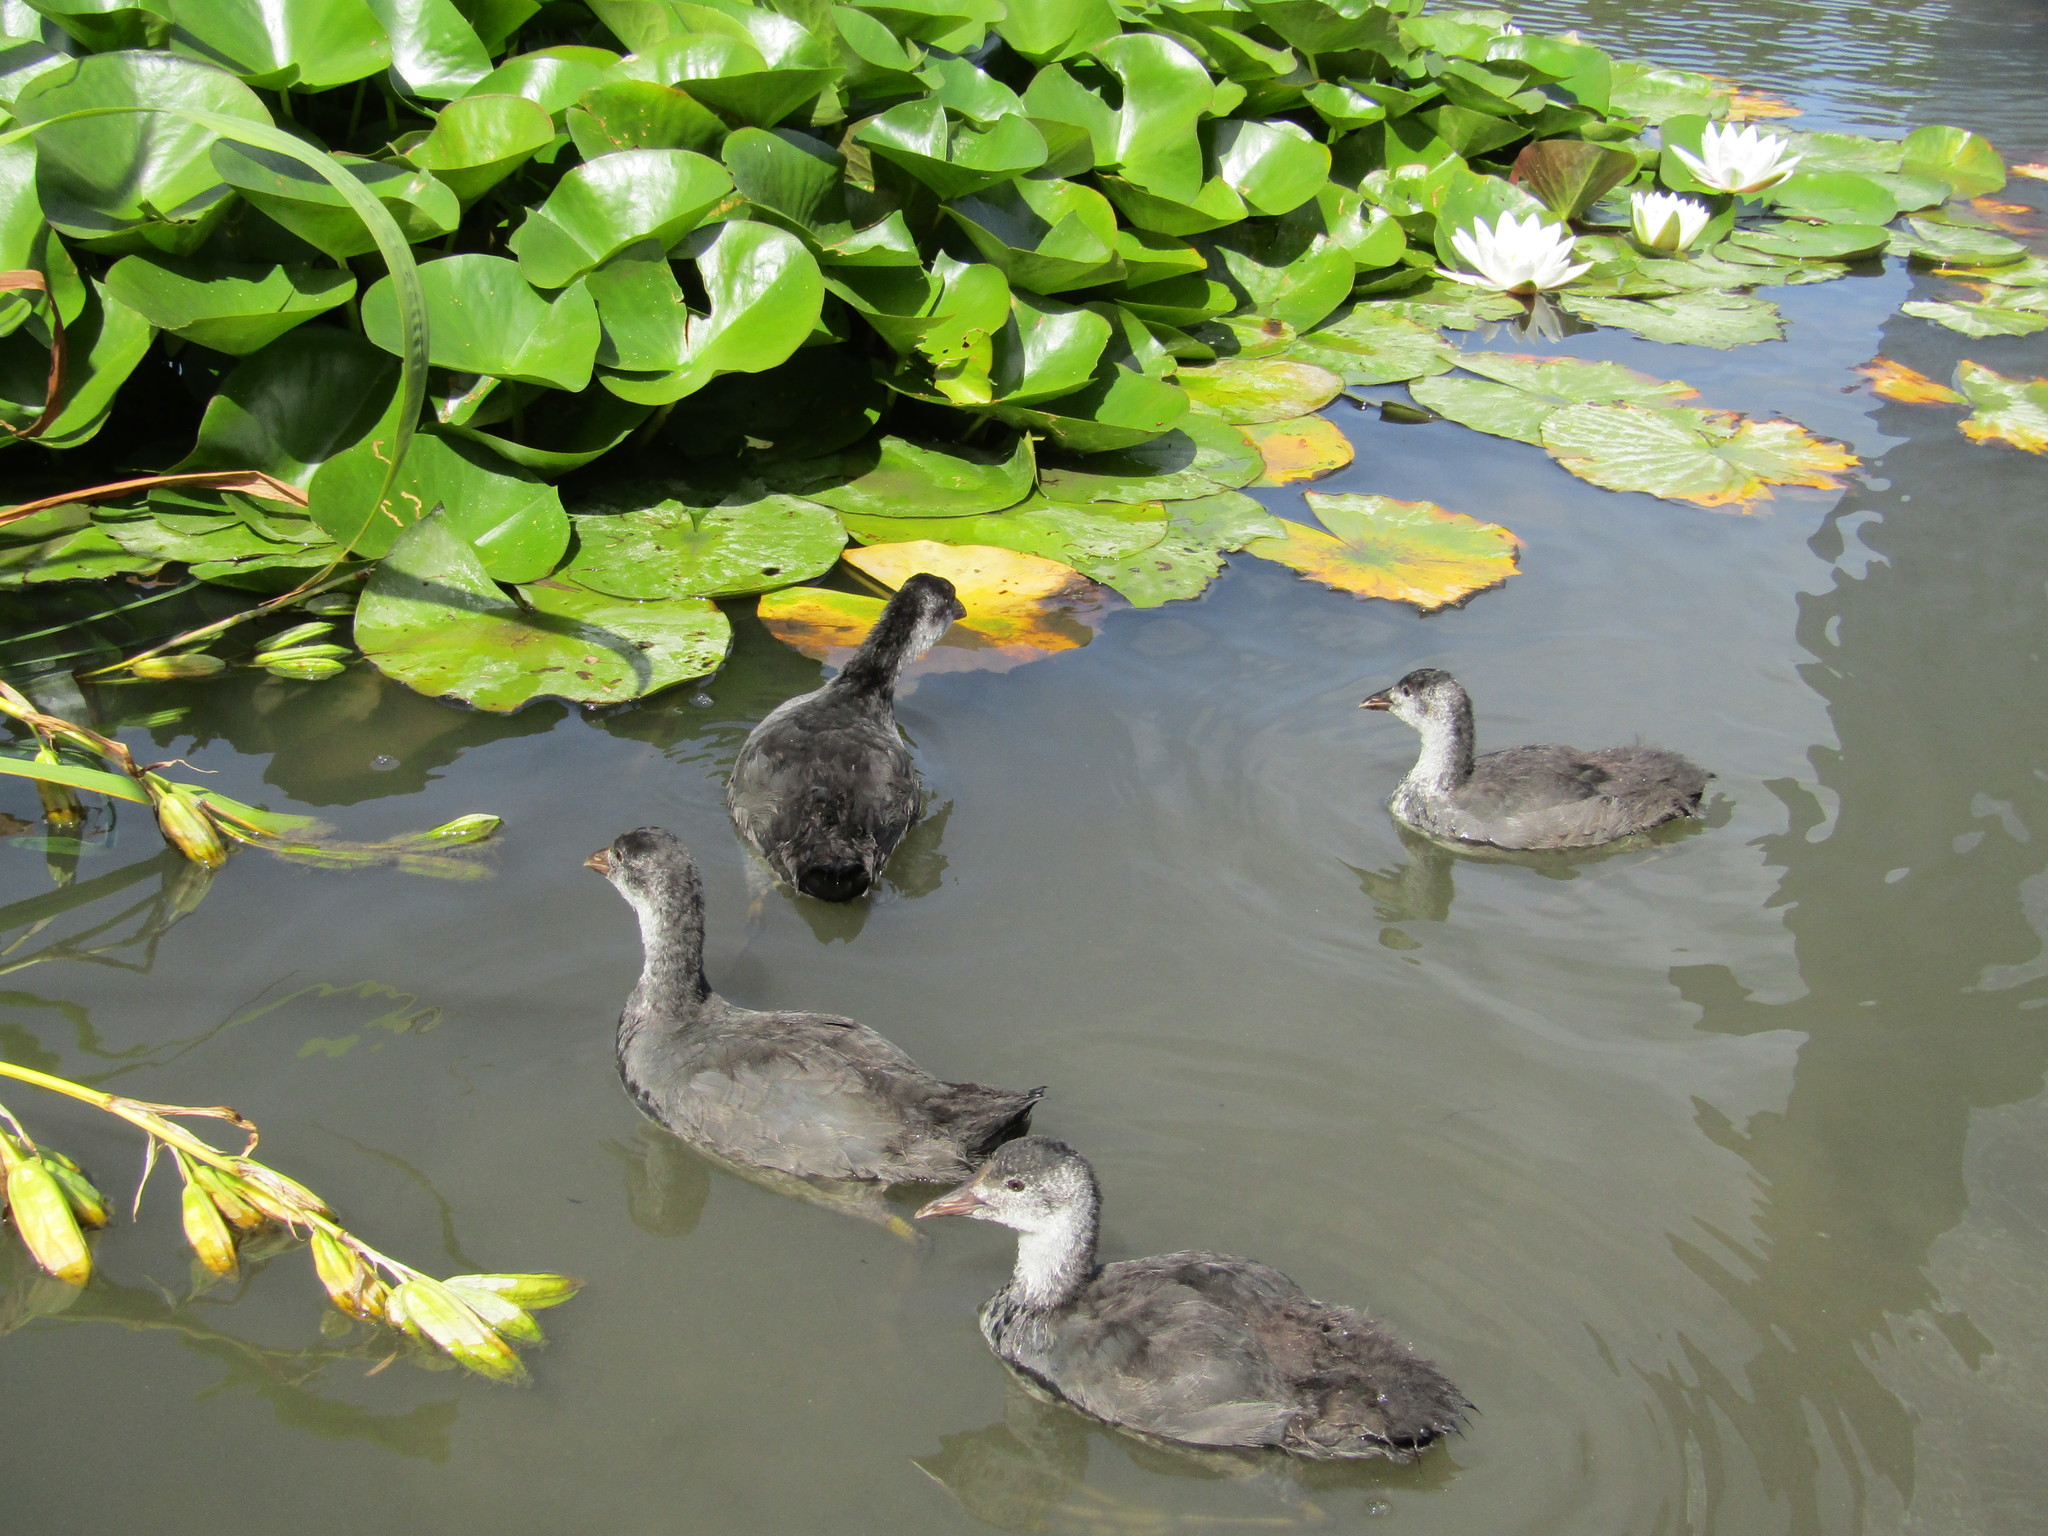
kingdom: Animalia
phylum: Chordata
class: Aves
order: Gruiformes
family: Rallidae
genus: Fulica
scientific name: Fulica atra
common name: Eurasian coot
